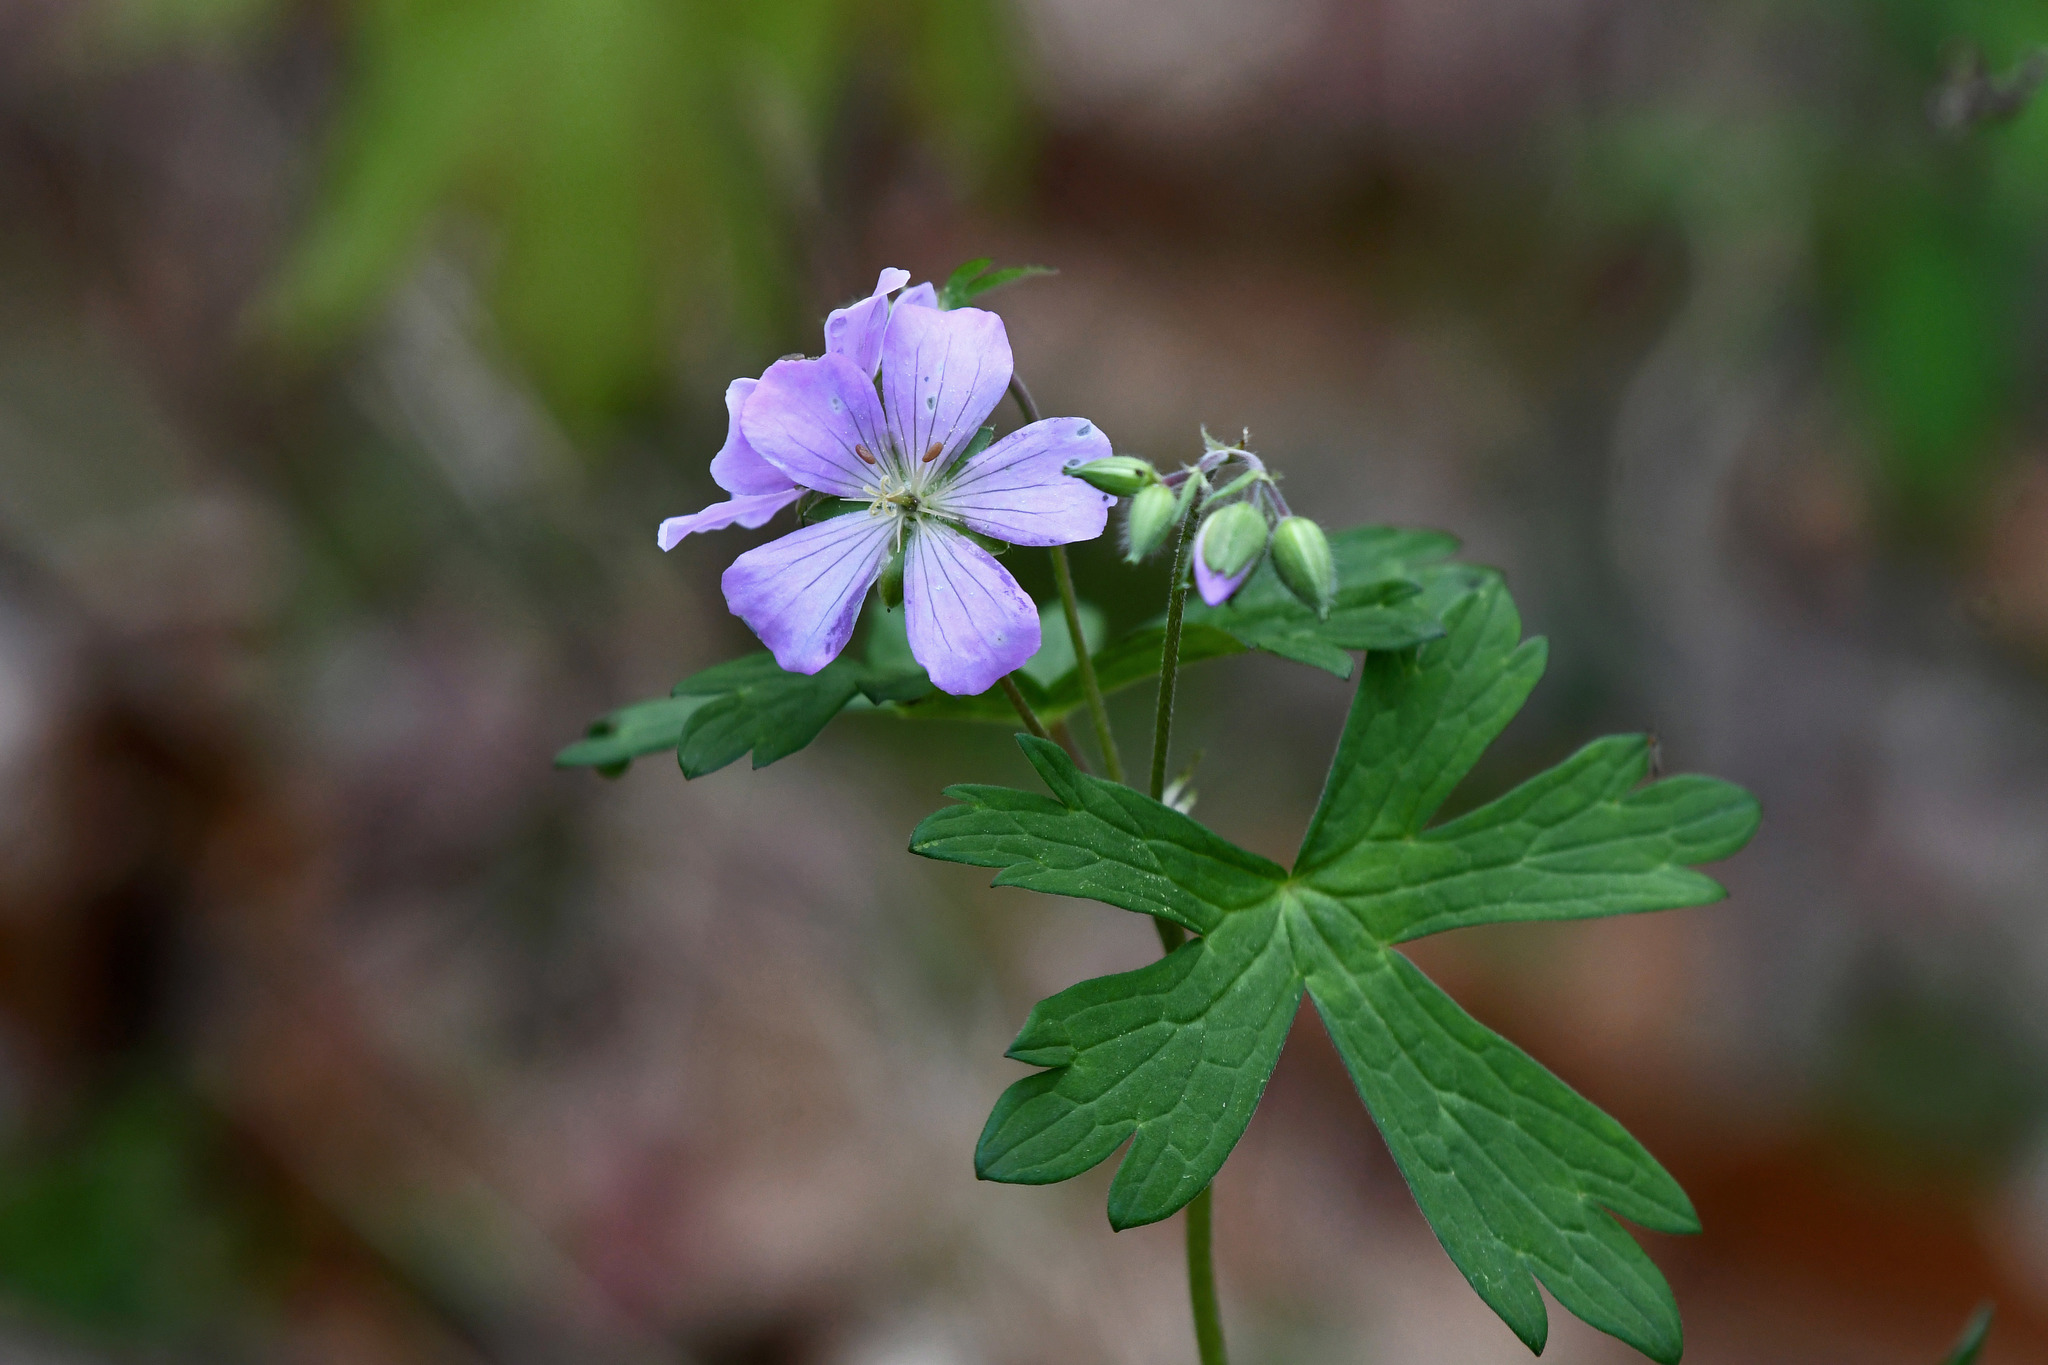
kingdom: Plantae
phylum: Tracheophyta
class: Magnoliopsida
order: Geraniales
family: Geraniaceae
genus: Geranium
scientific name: Geranium maculatum
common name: Spotted geranium
